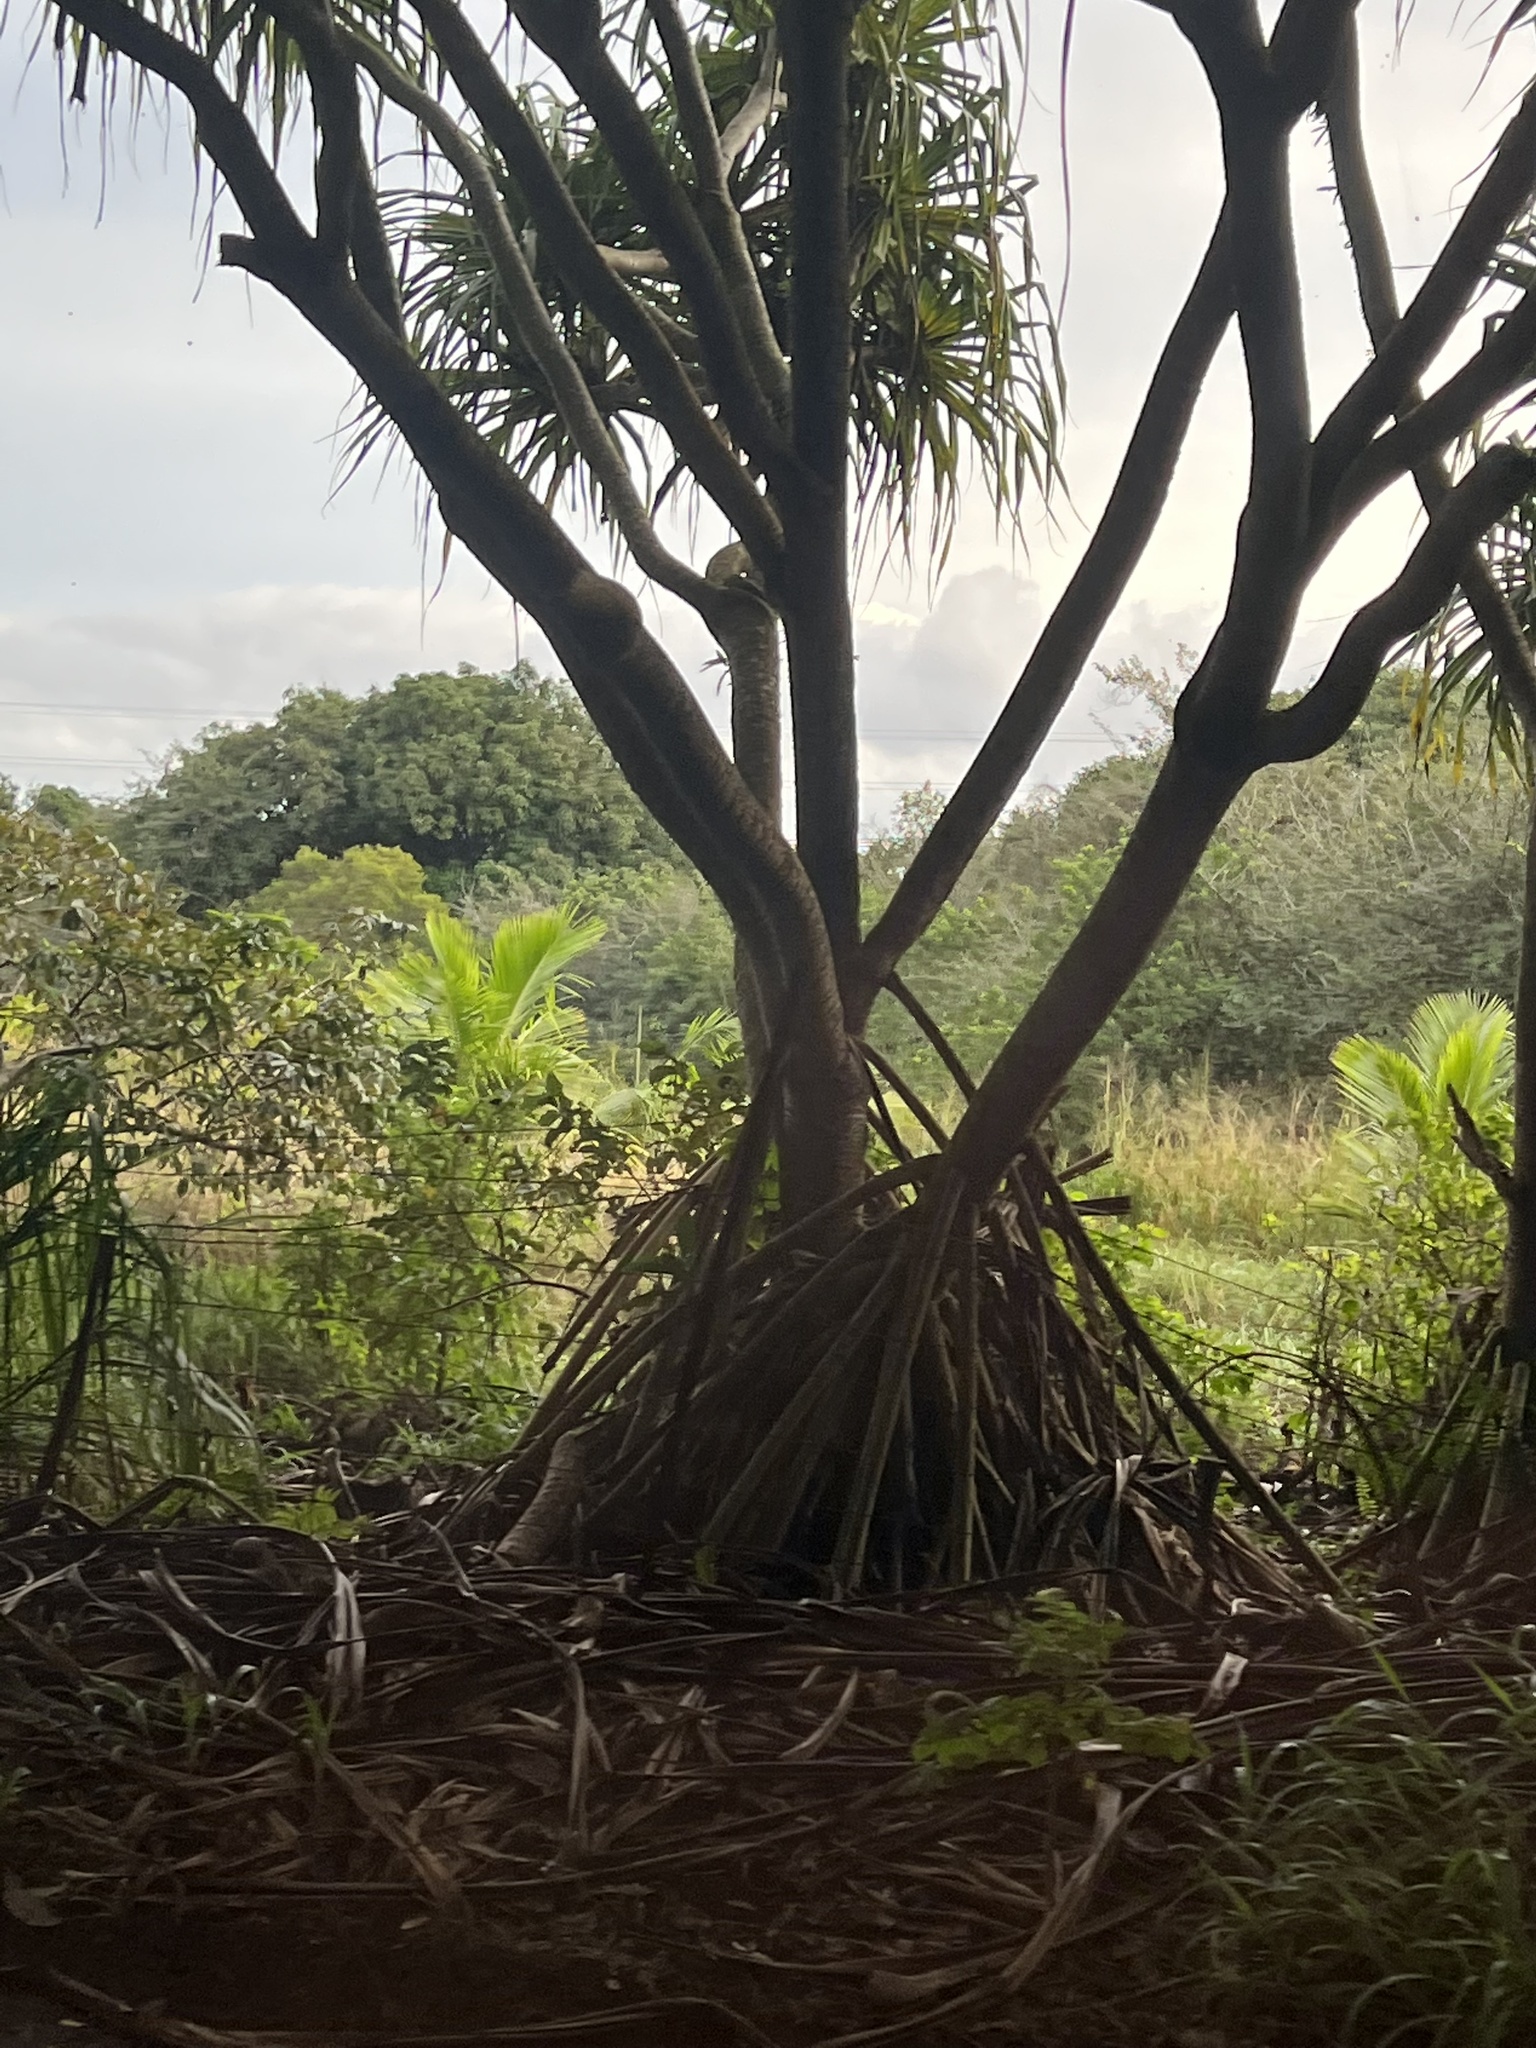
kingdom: Plantae
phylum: Tracheophyta
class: Liliopsida
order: Pandanales
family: Pandanaceae
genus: Pandanus
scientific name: Pandanus tectorius
